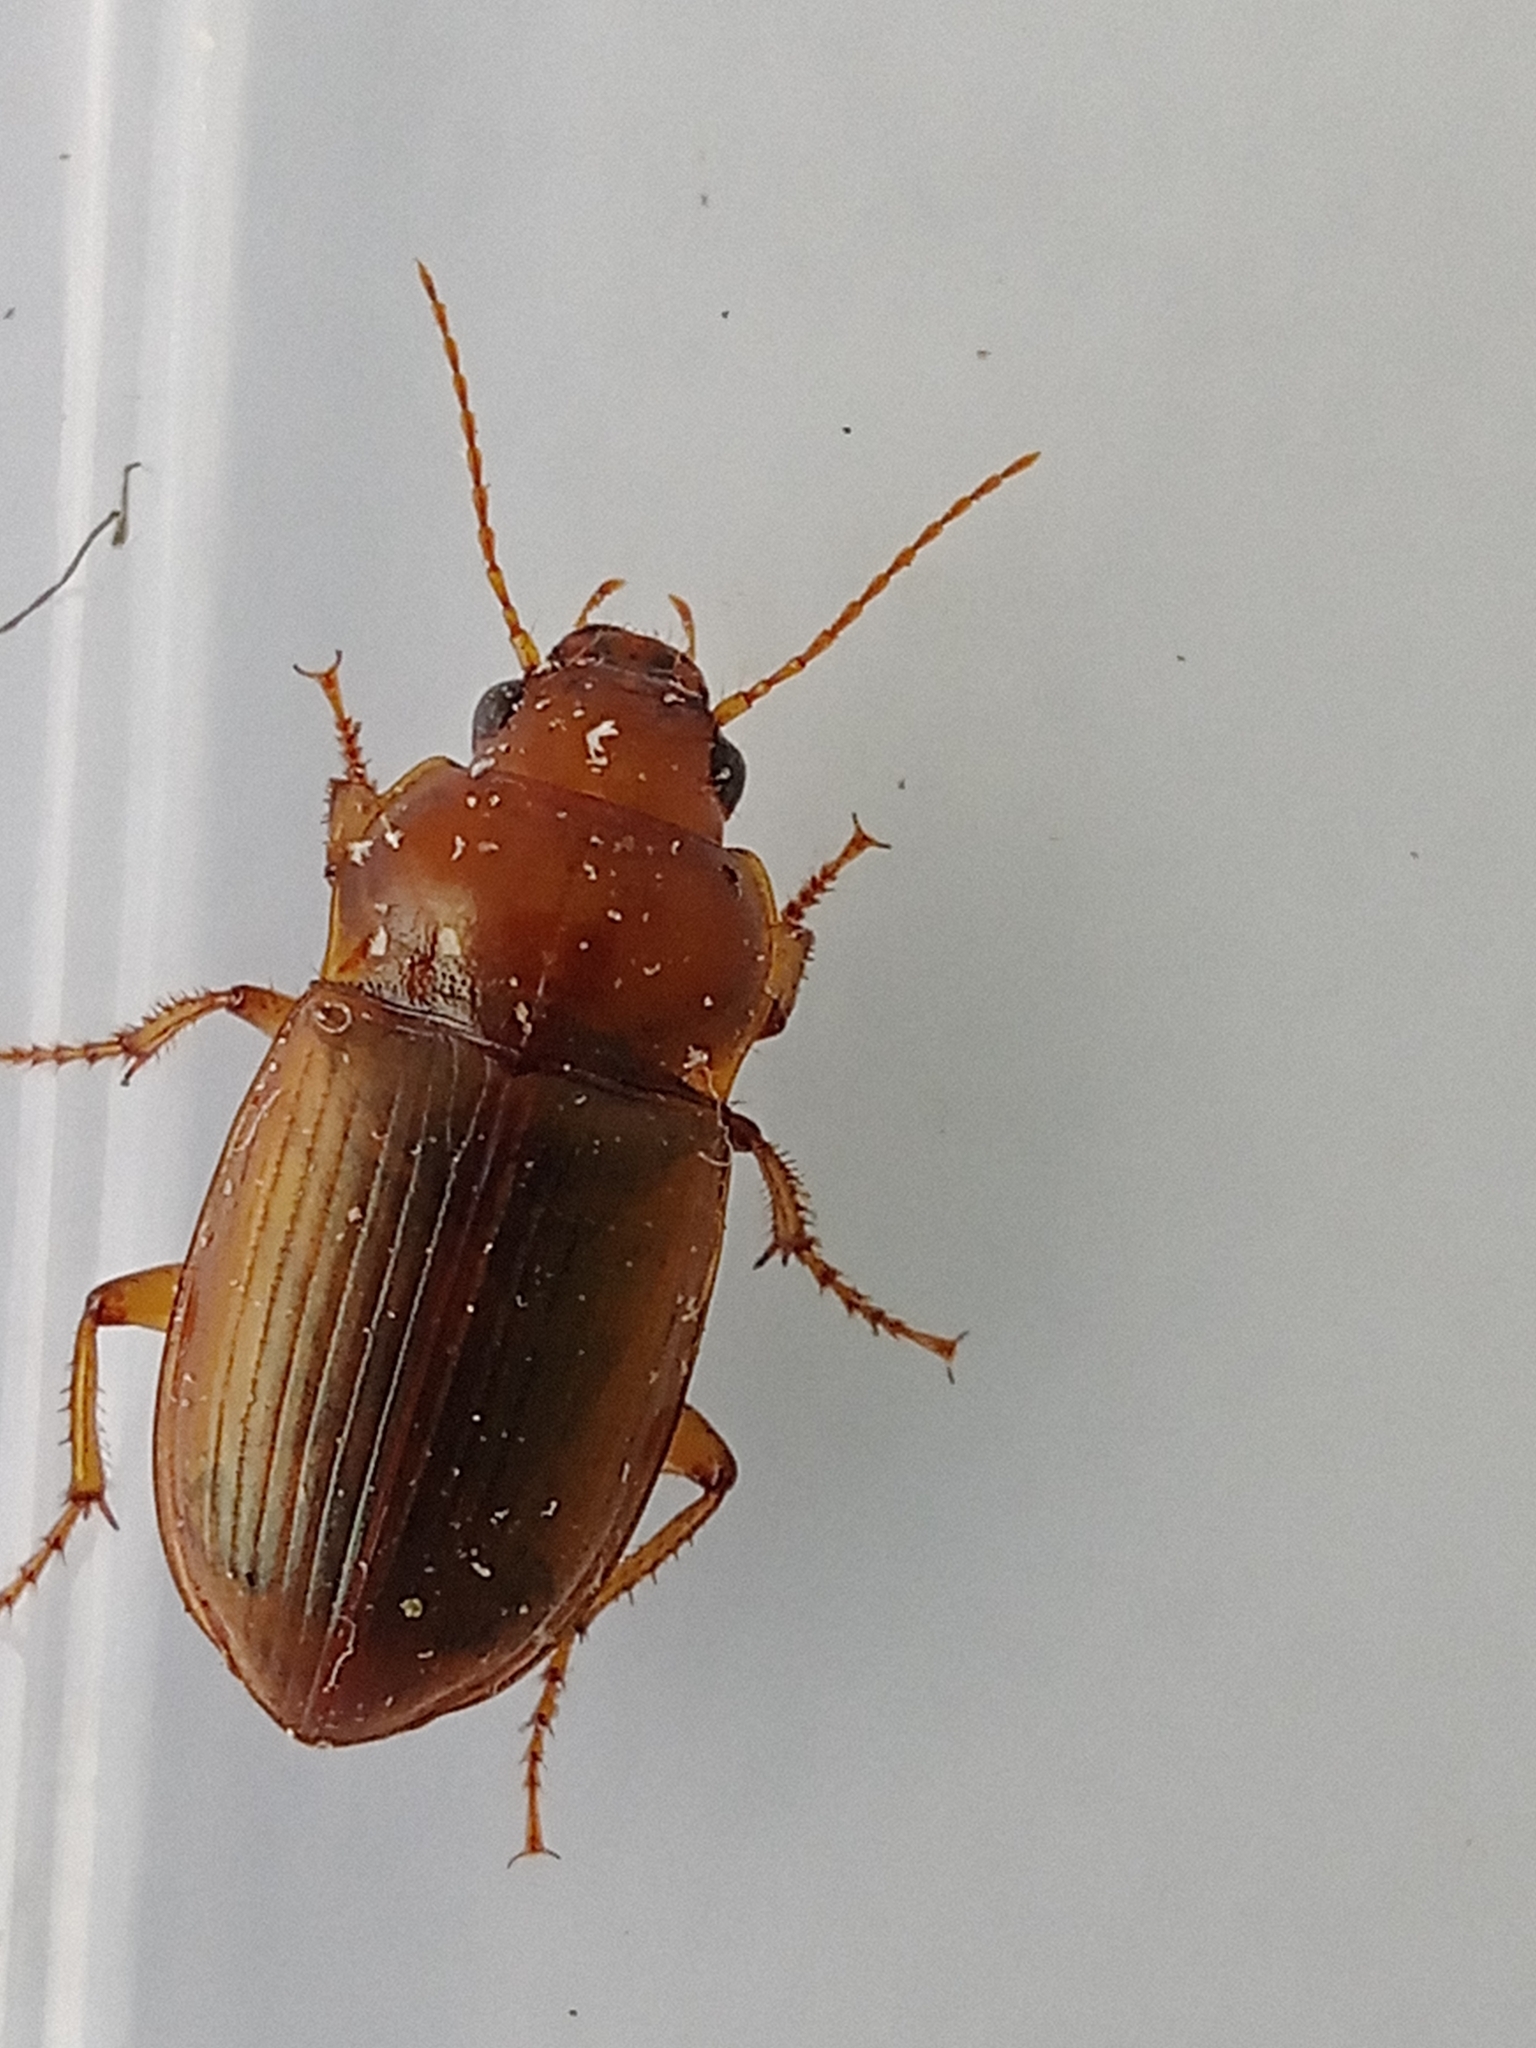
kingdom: Animalia
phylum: Arthropoda
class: Insecta
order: Coleoptera
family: Carabidae
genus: Amara
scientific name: Amara fulva
